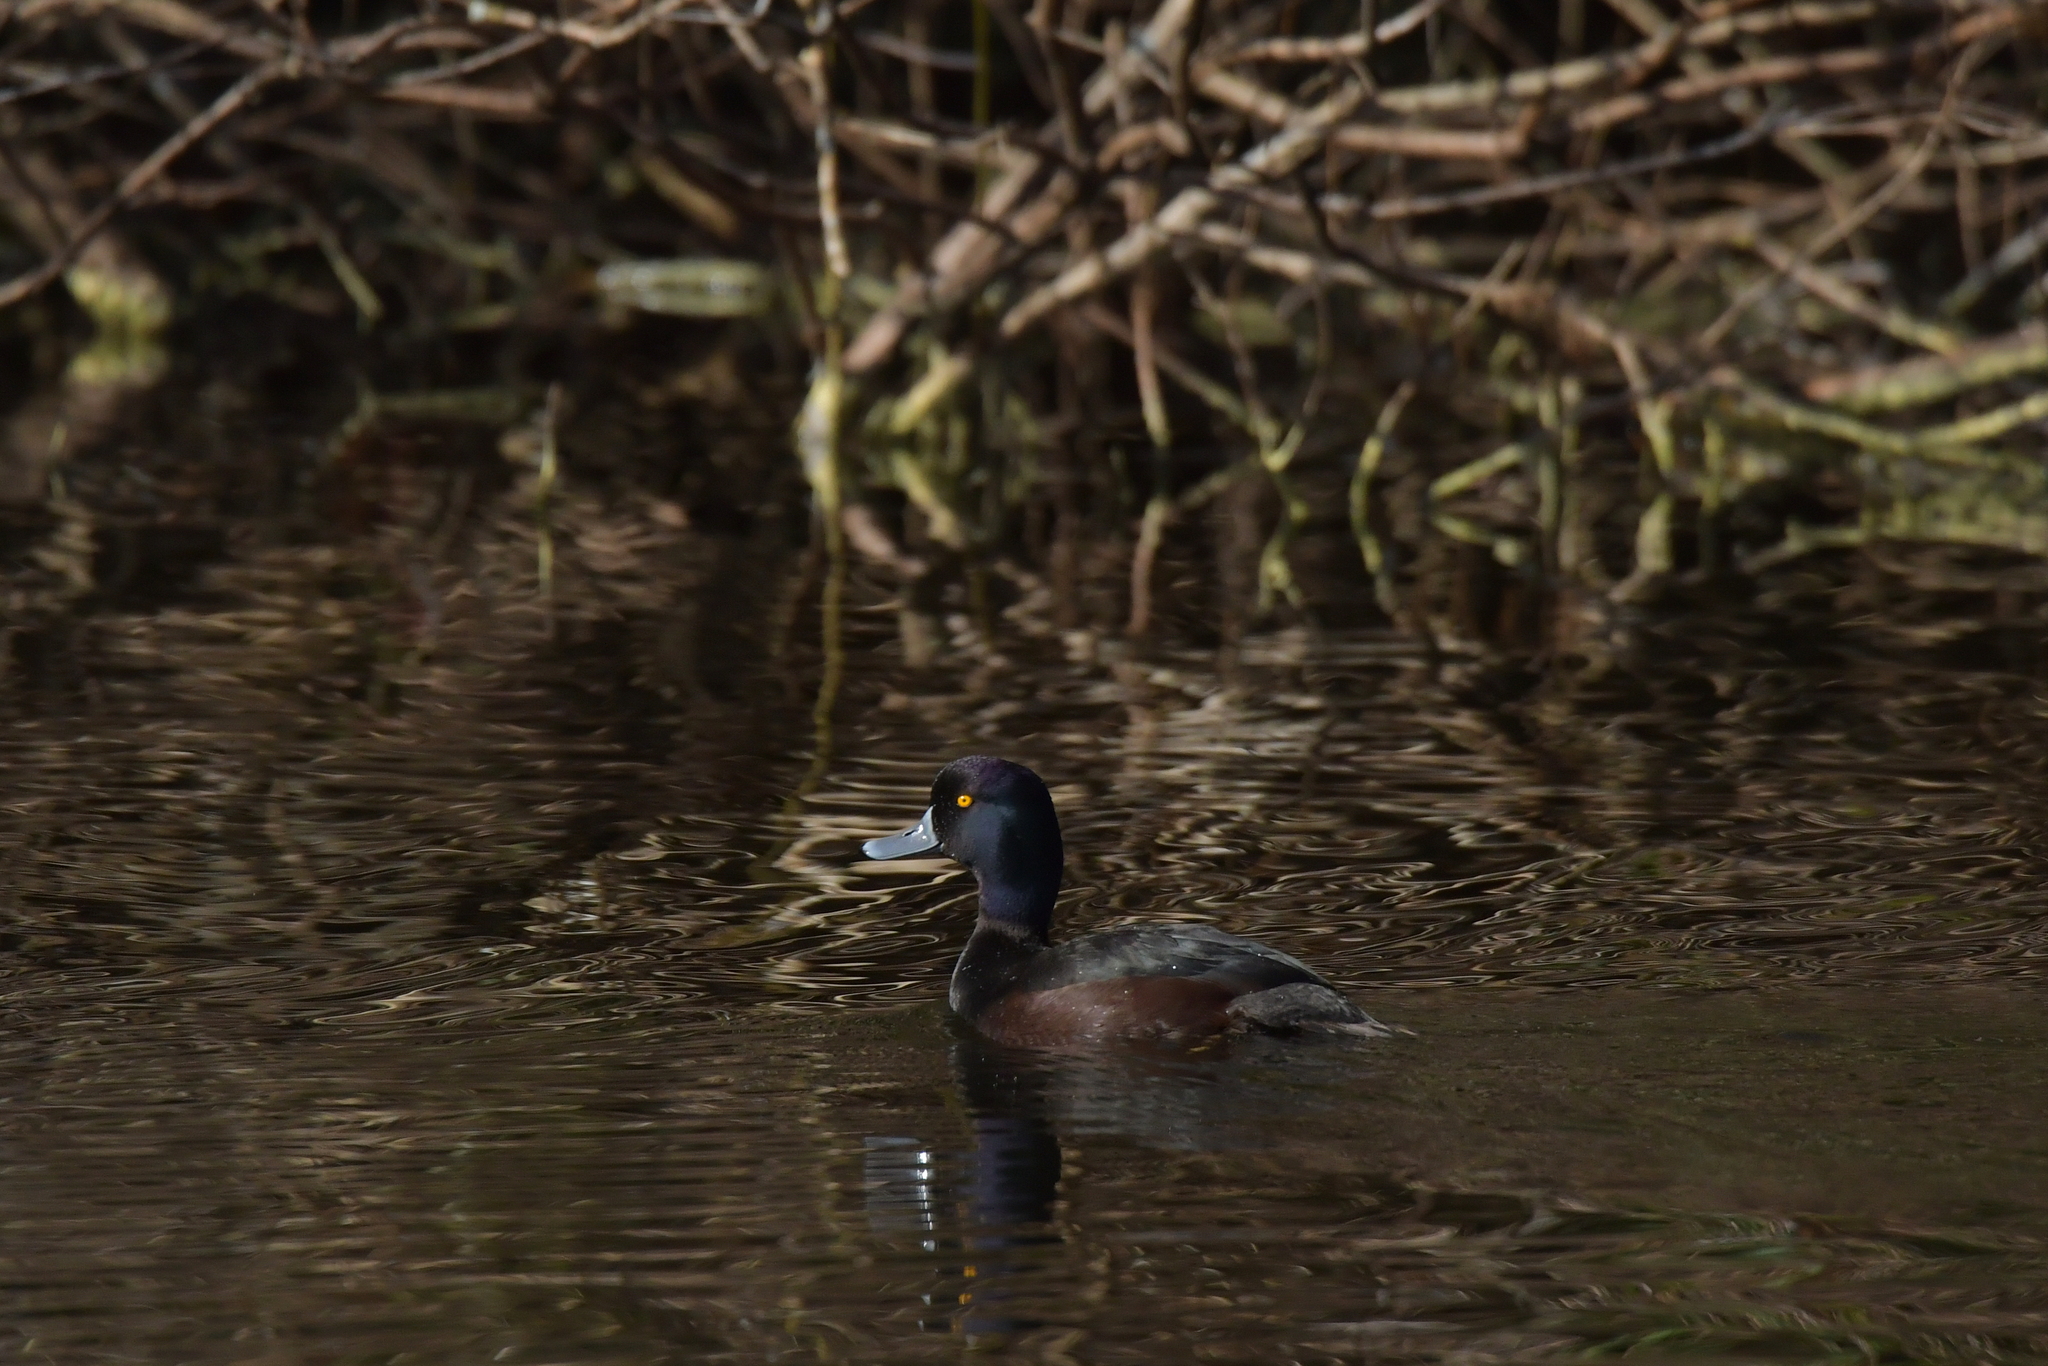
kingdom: Animalia
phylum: Chordata
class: Aves
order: Anseriformes
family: Anatidae
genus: Aythya
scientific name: Aythya novaeseelandiae
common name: New zealand scaup
